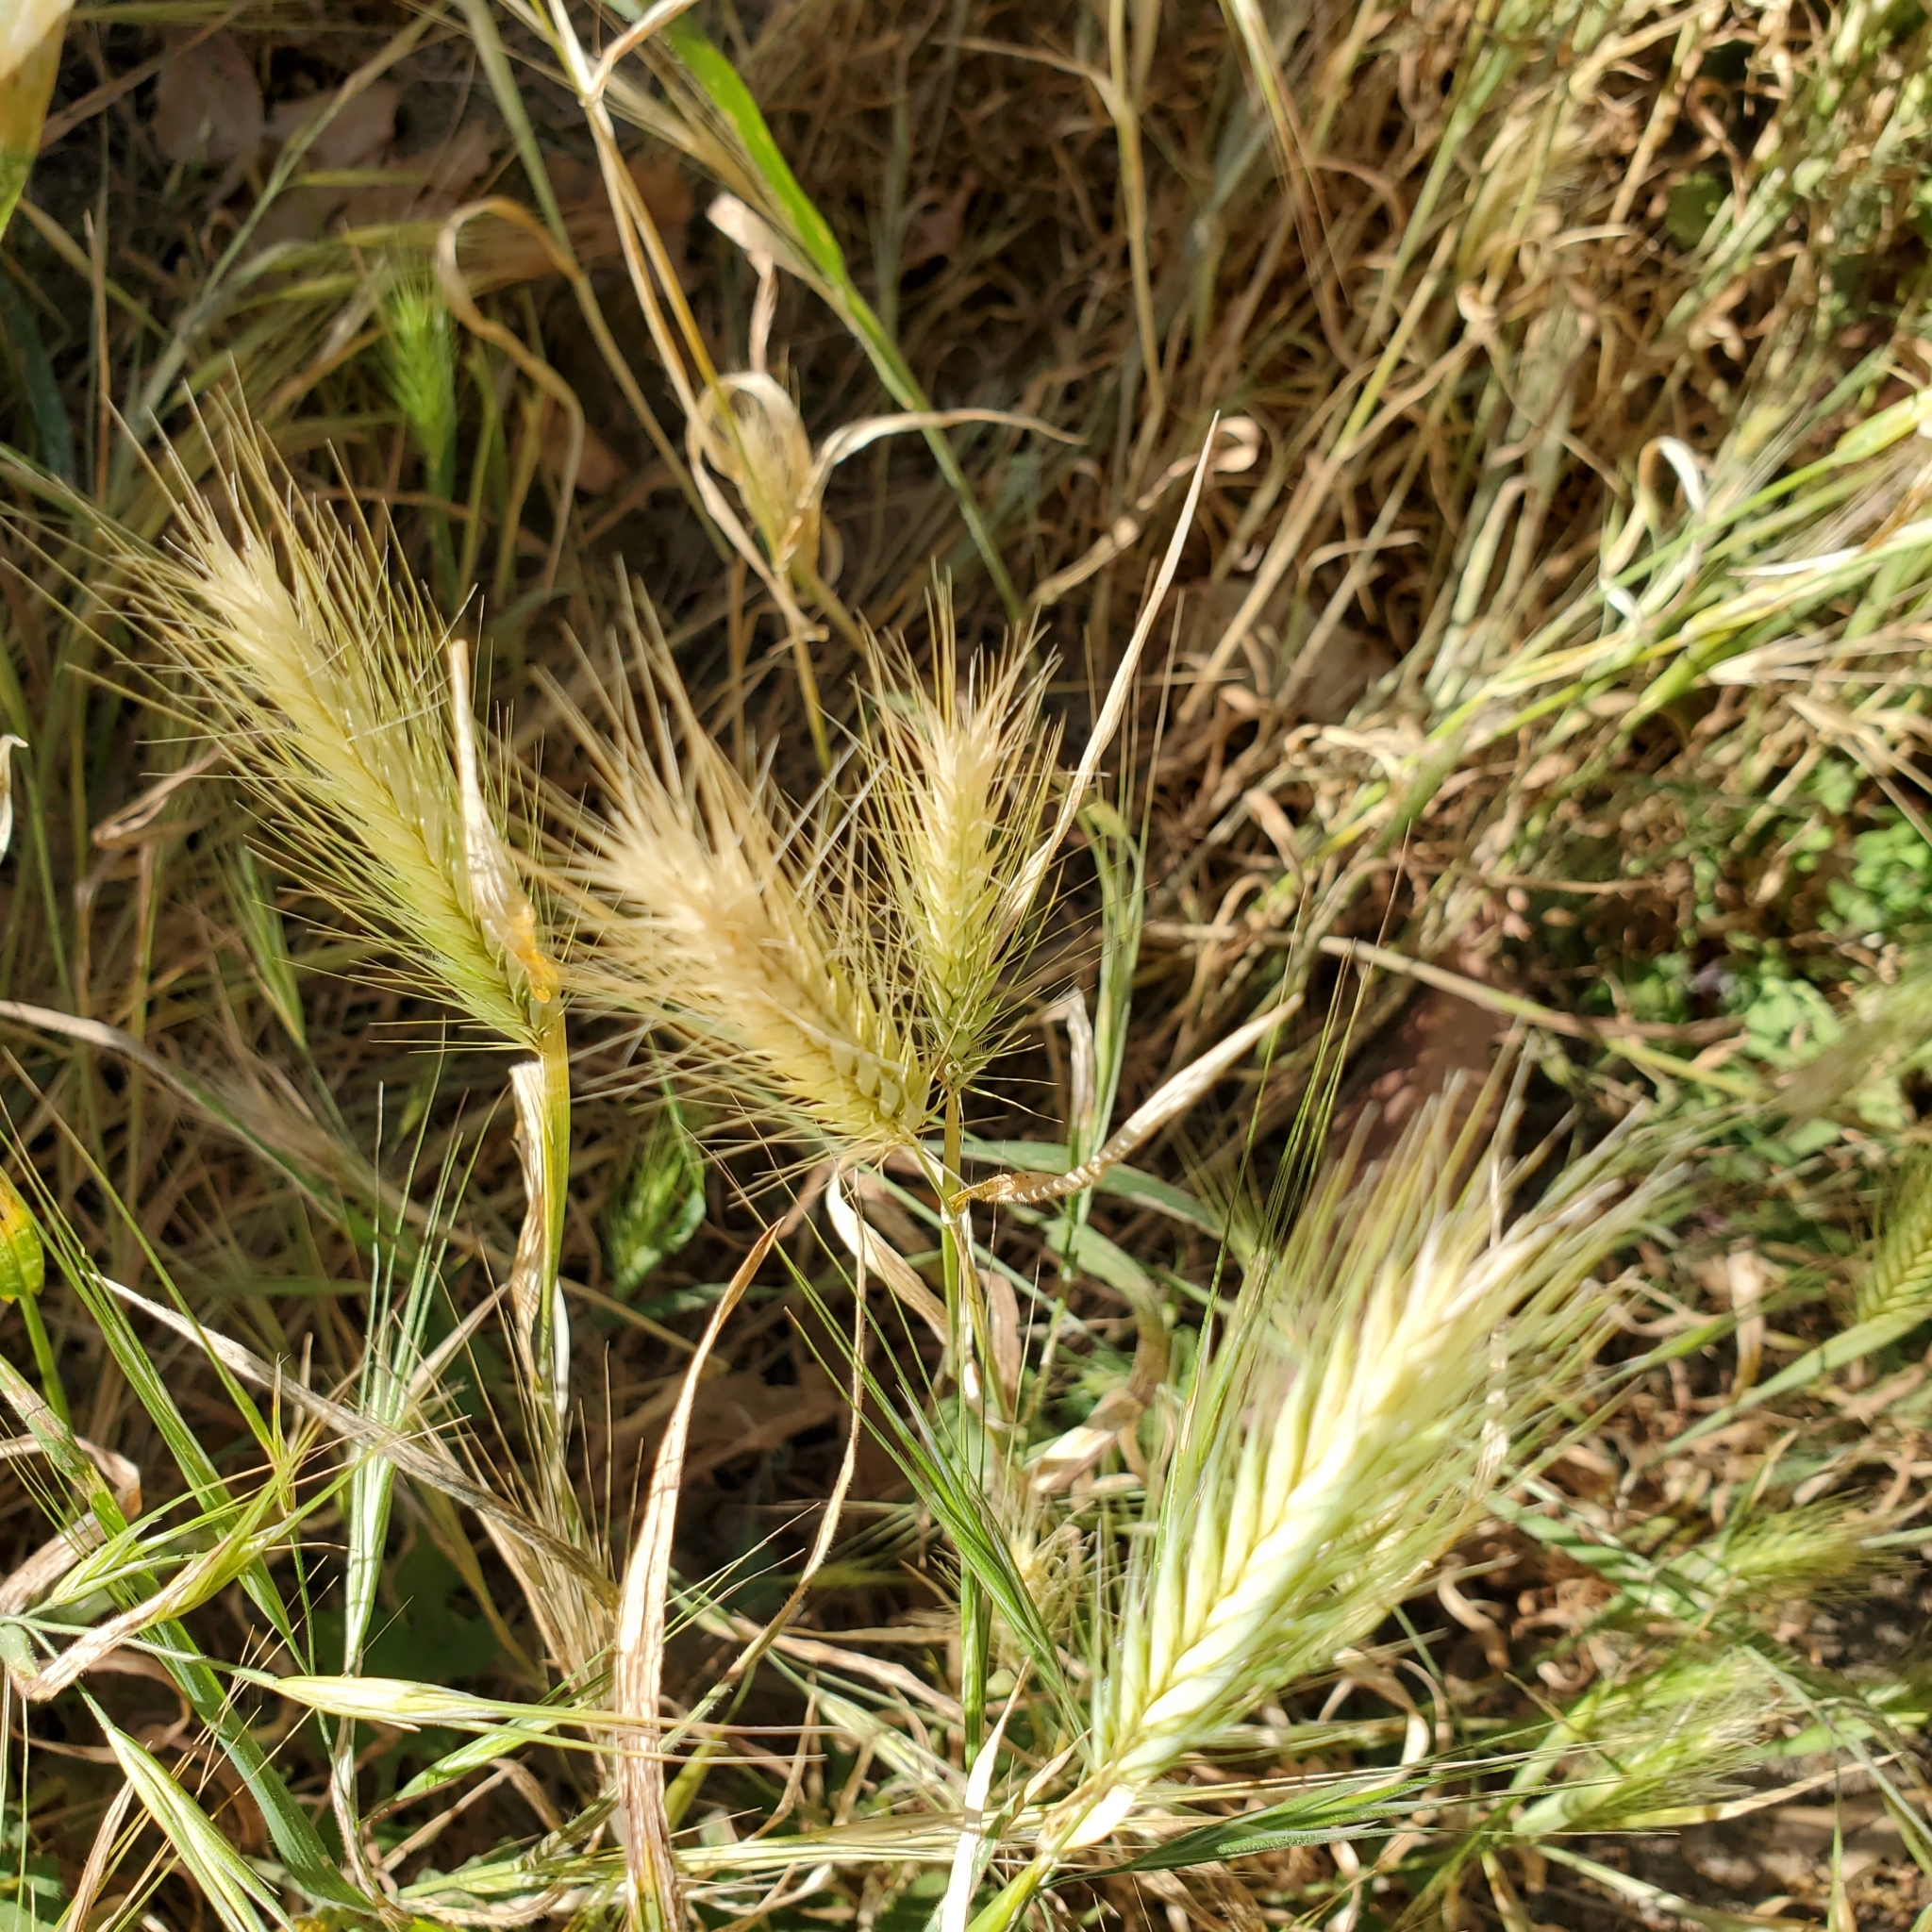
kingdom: Plantae
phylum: Tracheophyta
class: Liliopsida
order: Poales
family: Poaceae
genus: Hordeum
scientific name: Hordeum murinum
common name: Wall barley
